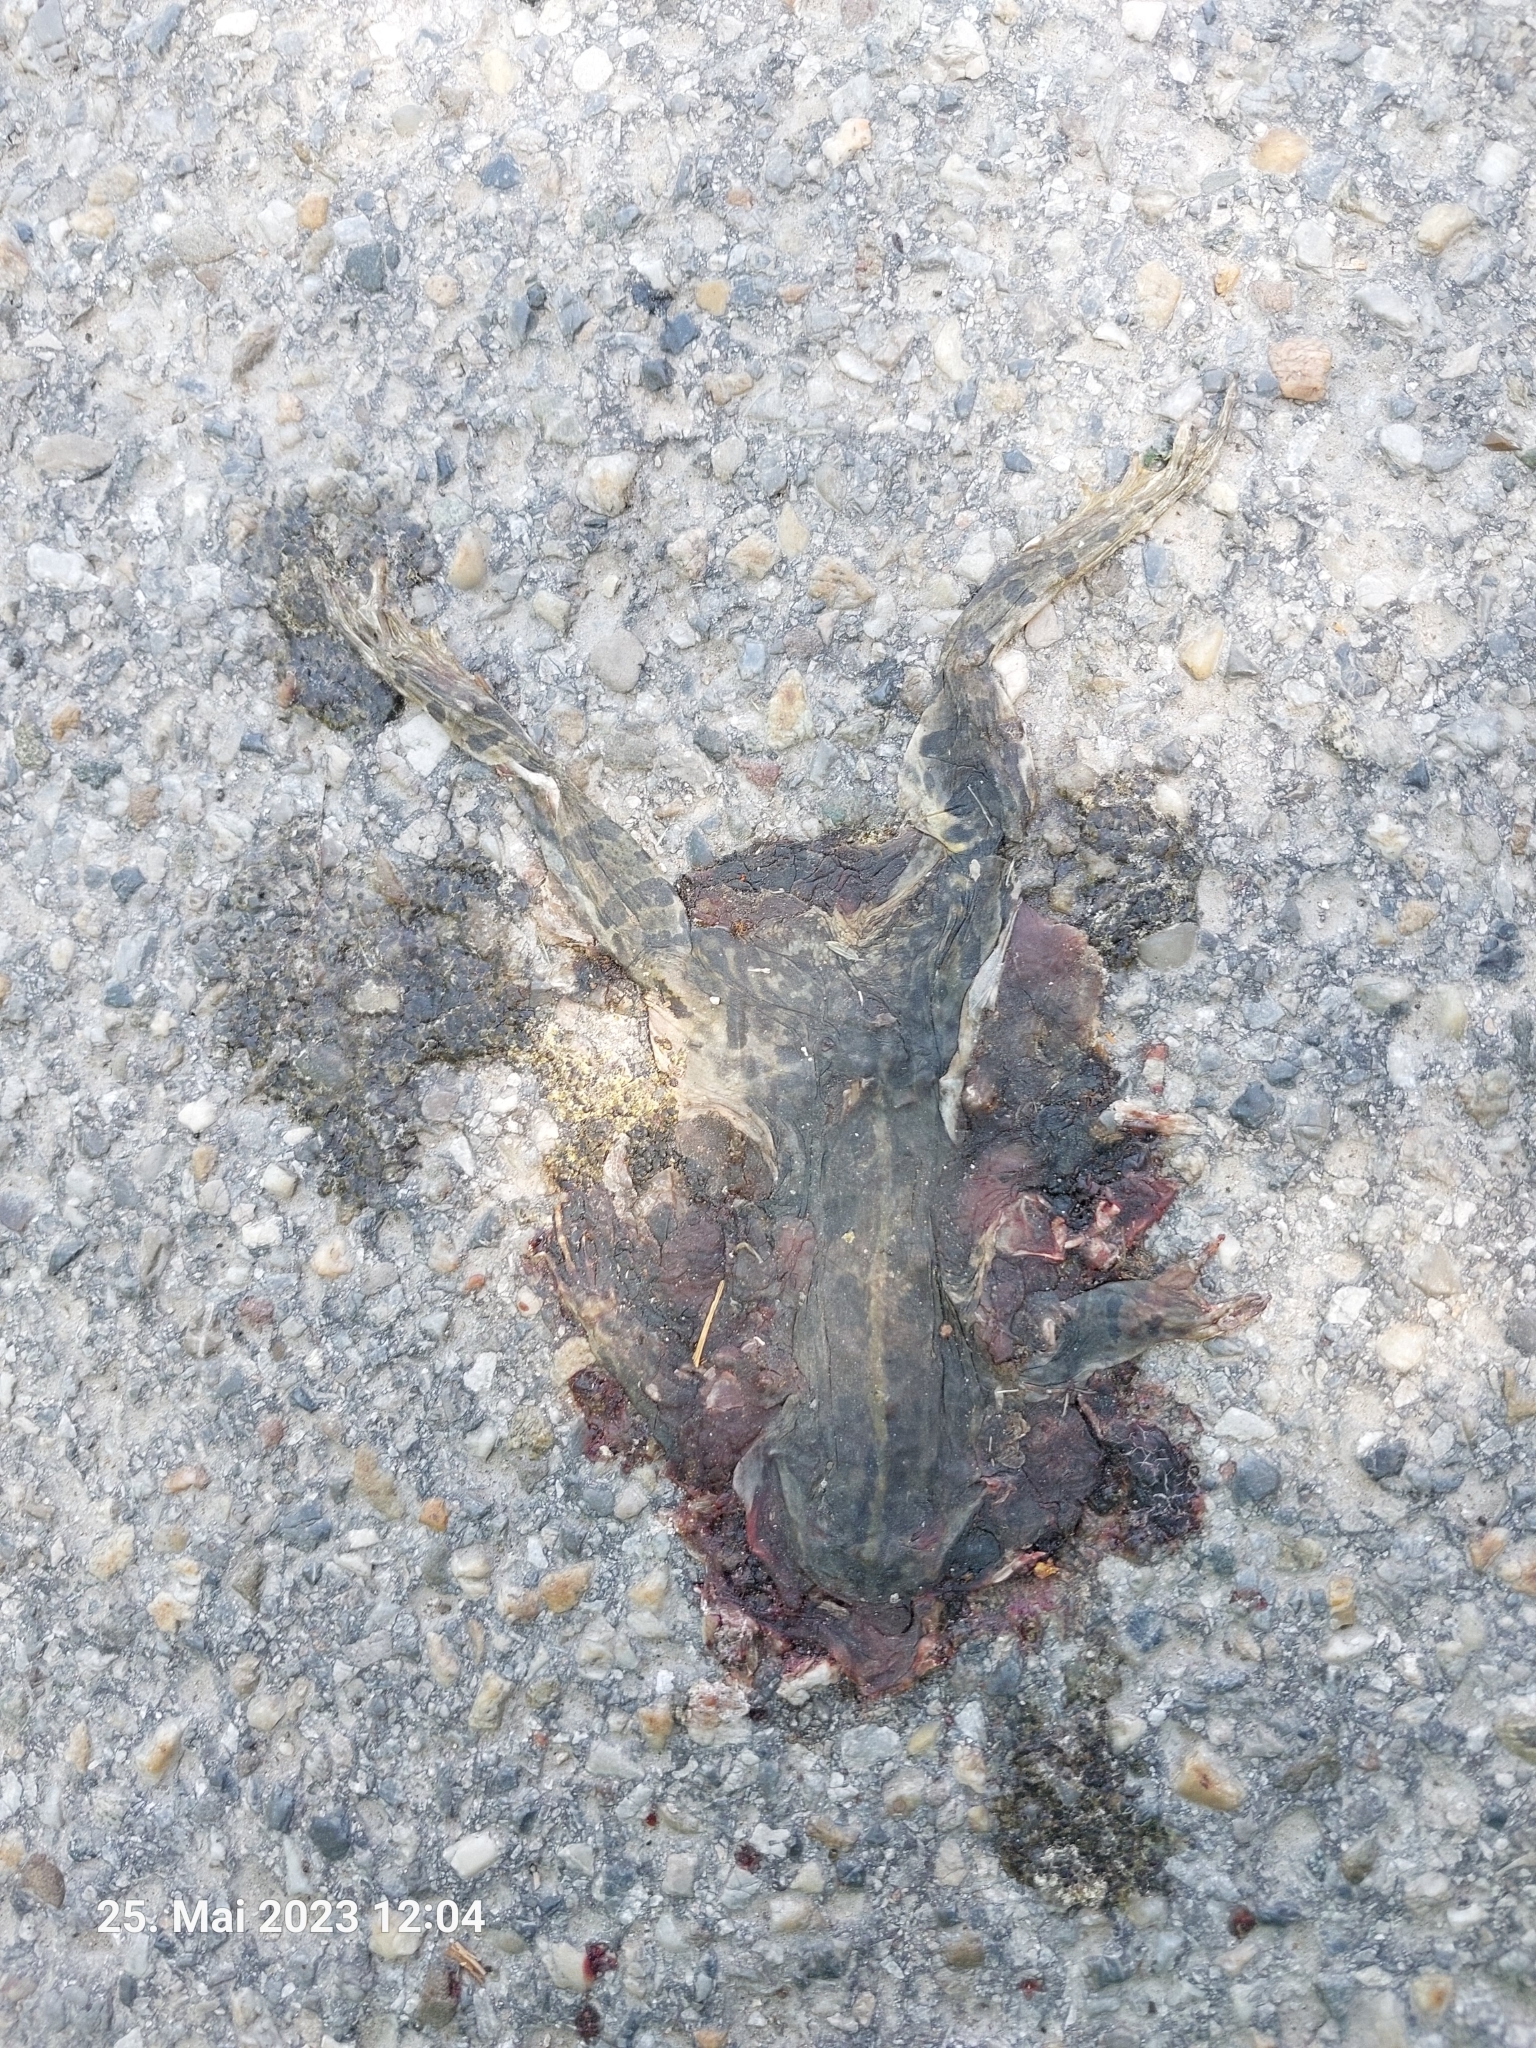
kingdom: Animalia
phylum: Chordata
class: Amphibia
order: Anura
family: Ranidae
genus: Pelophylax
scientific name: Pelophylax
